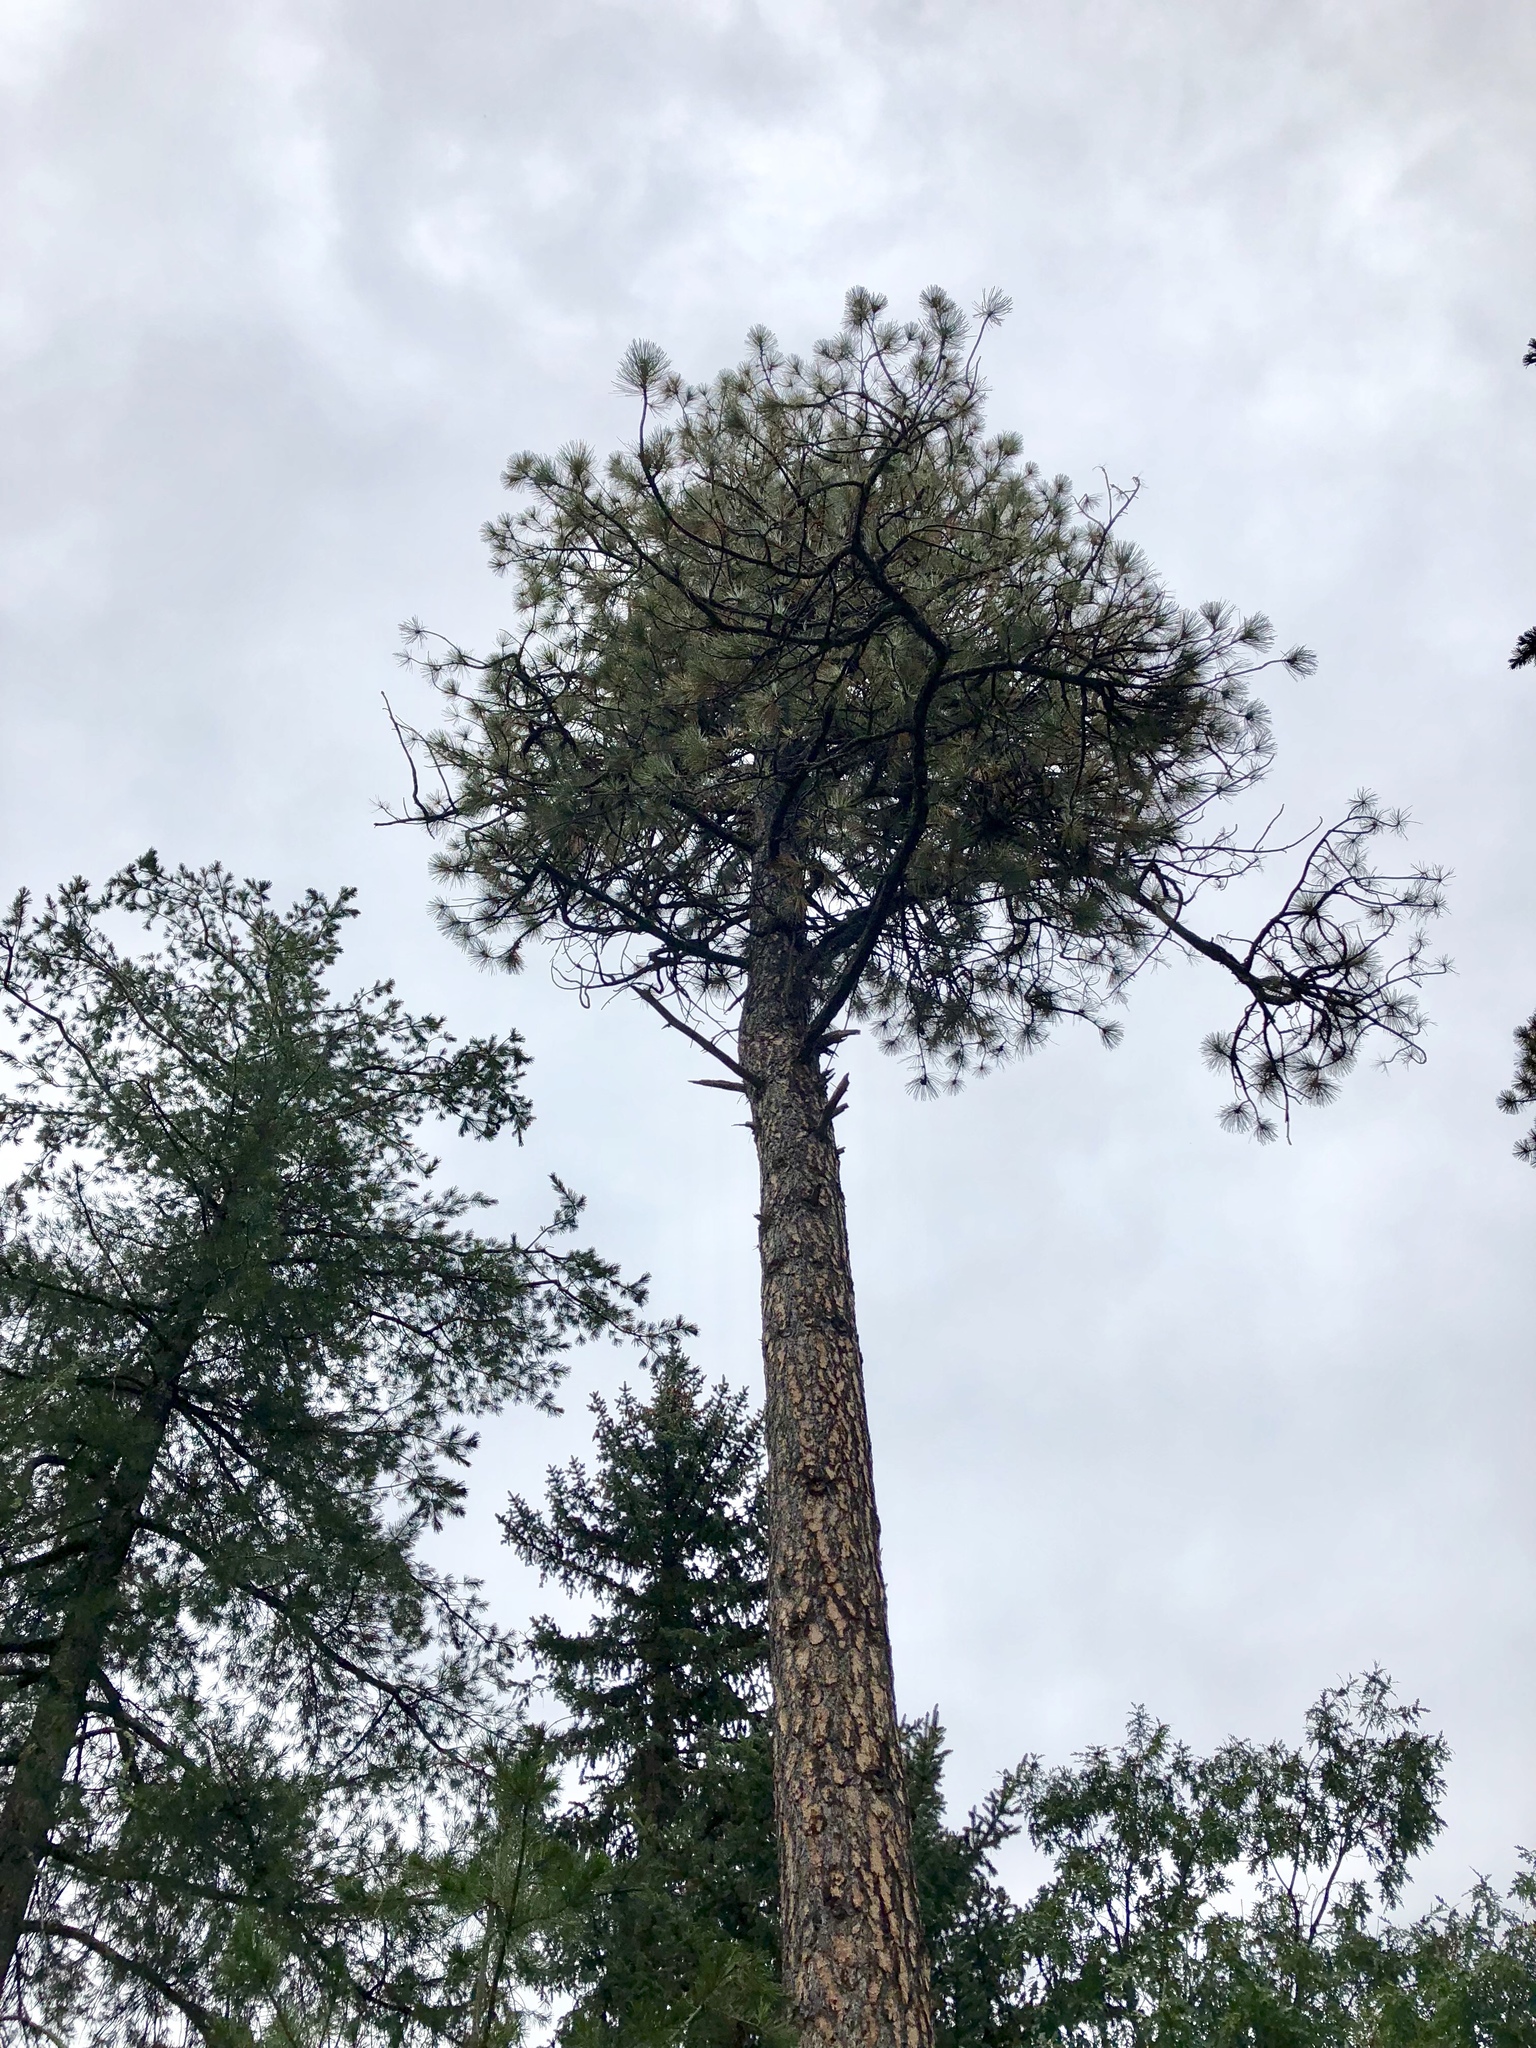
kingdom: Plantae
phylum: Tracheophyta
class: Pinopsida
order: Pinales
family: Pinaceae
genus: Pinus
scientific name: Pinus ponderosa
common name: Western yellow-pine
